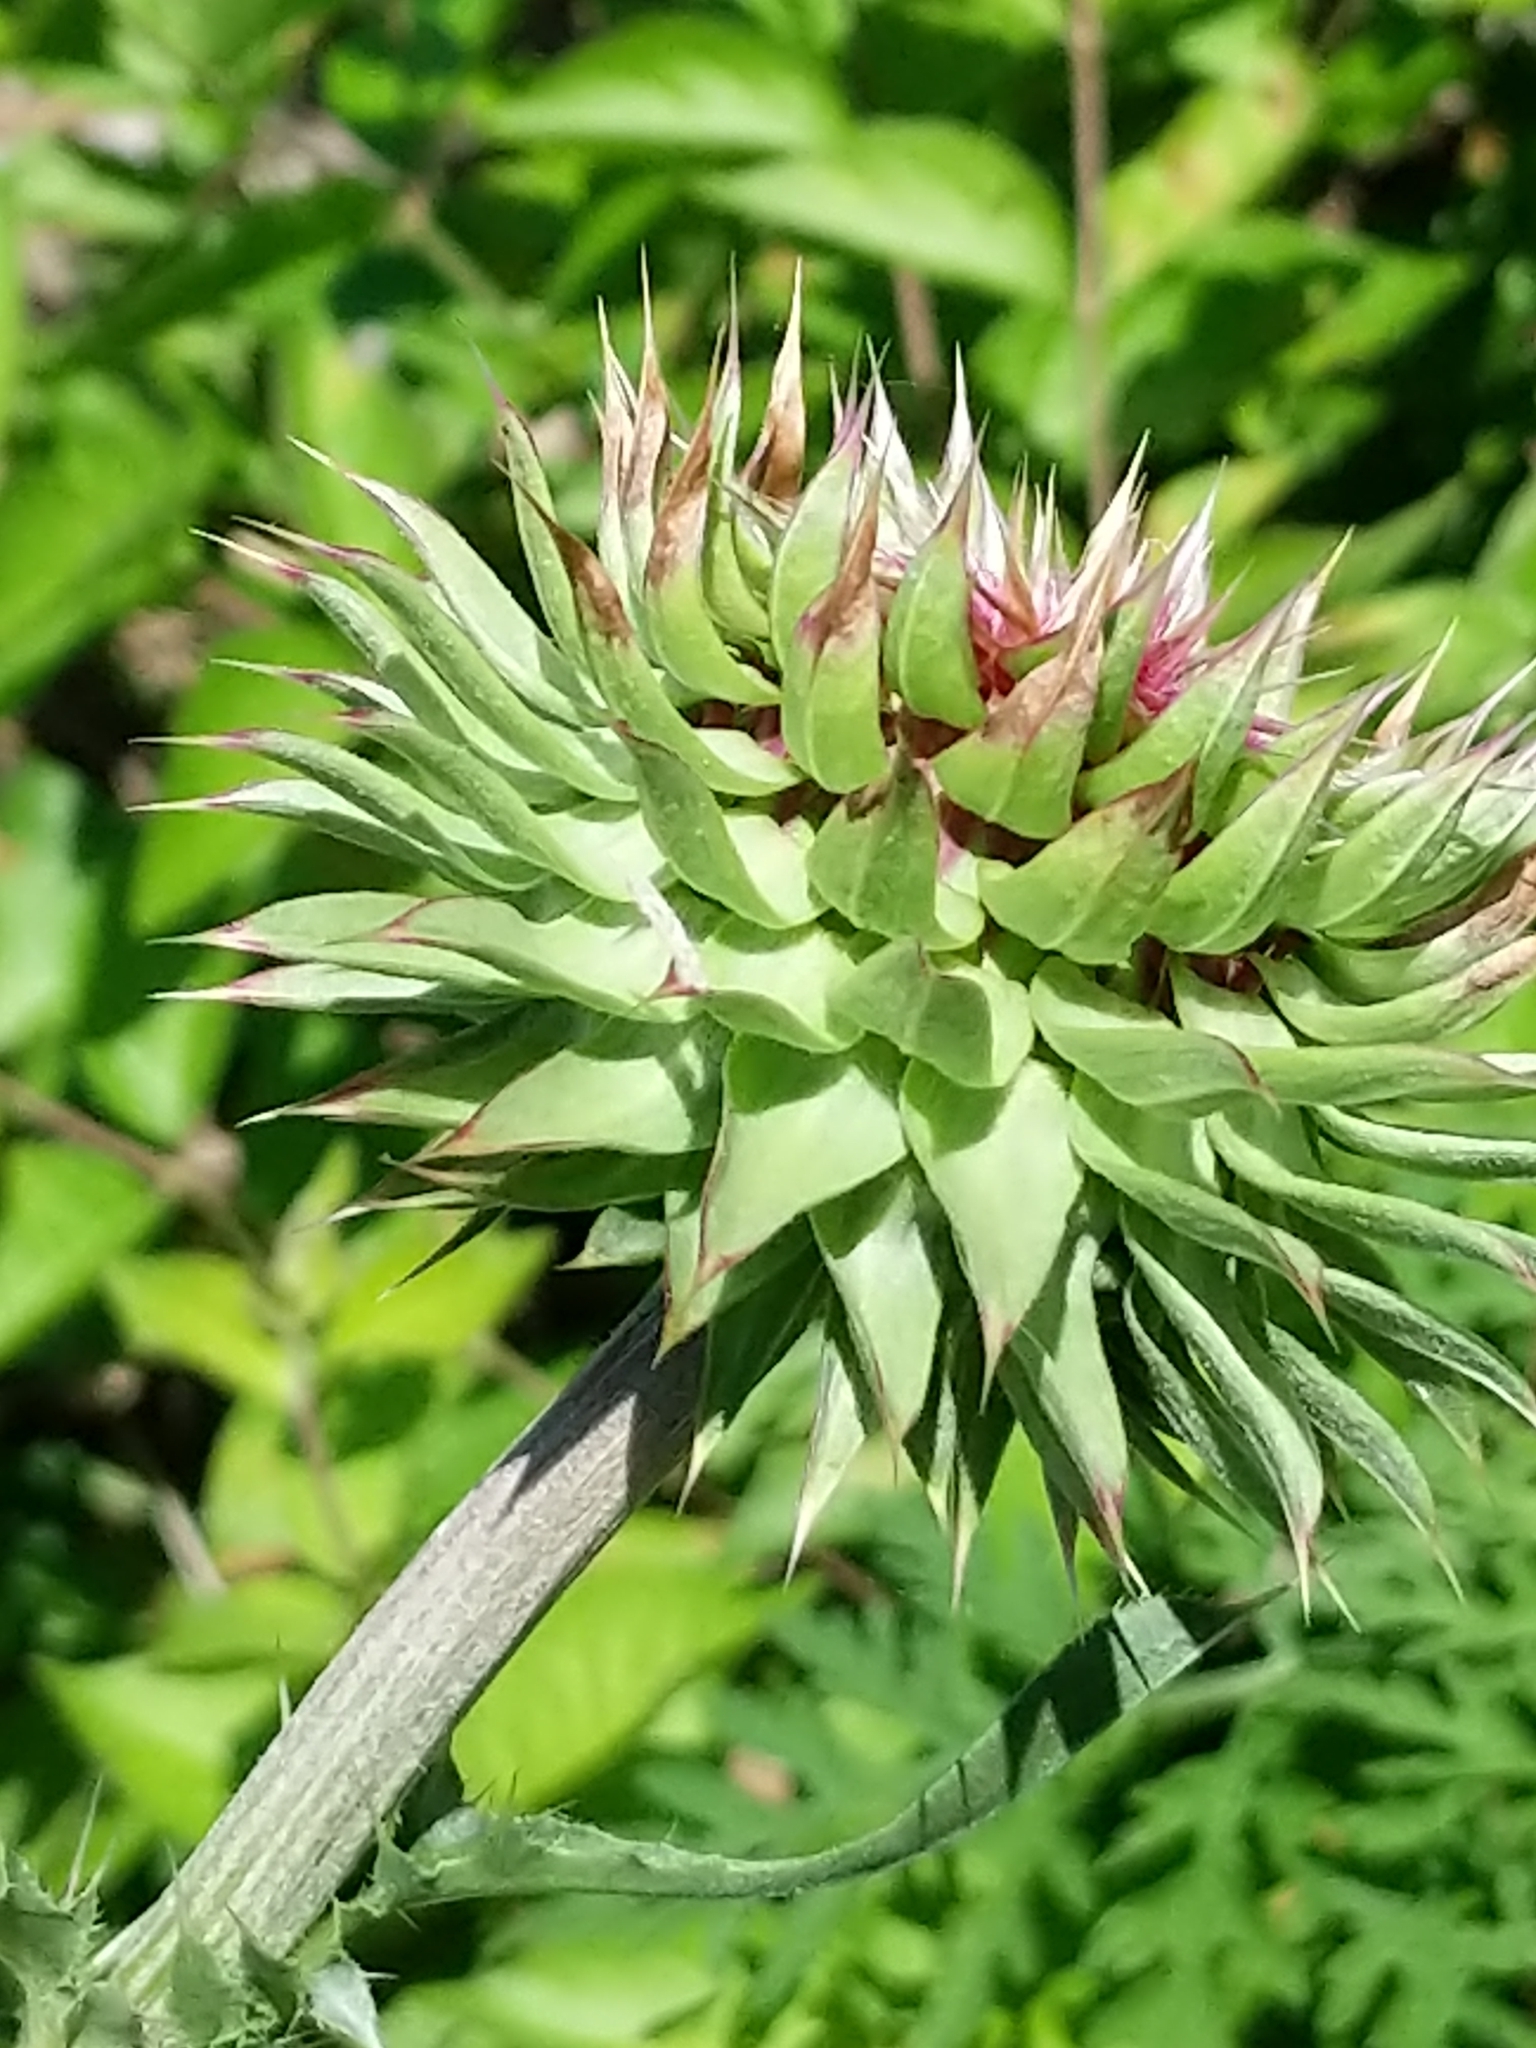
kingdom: Plantae
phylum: Tracheophyta
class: Magnoliopsida
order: Asterales
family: Asteraceae
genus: Carduus
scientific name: Carduus nutans
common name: Musk thistle
